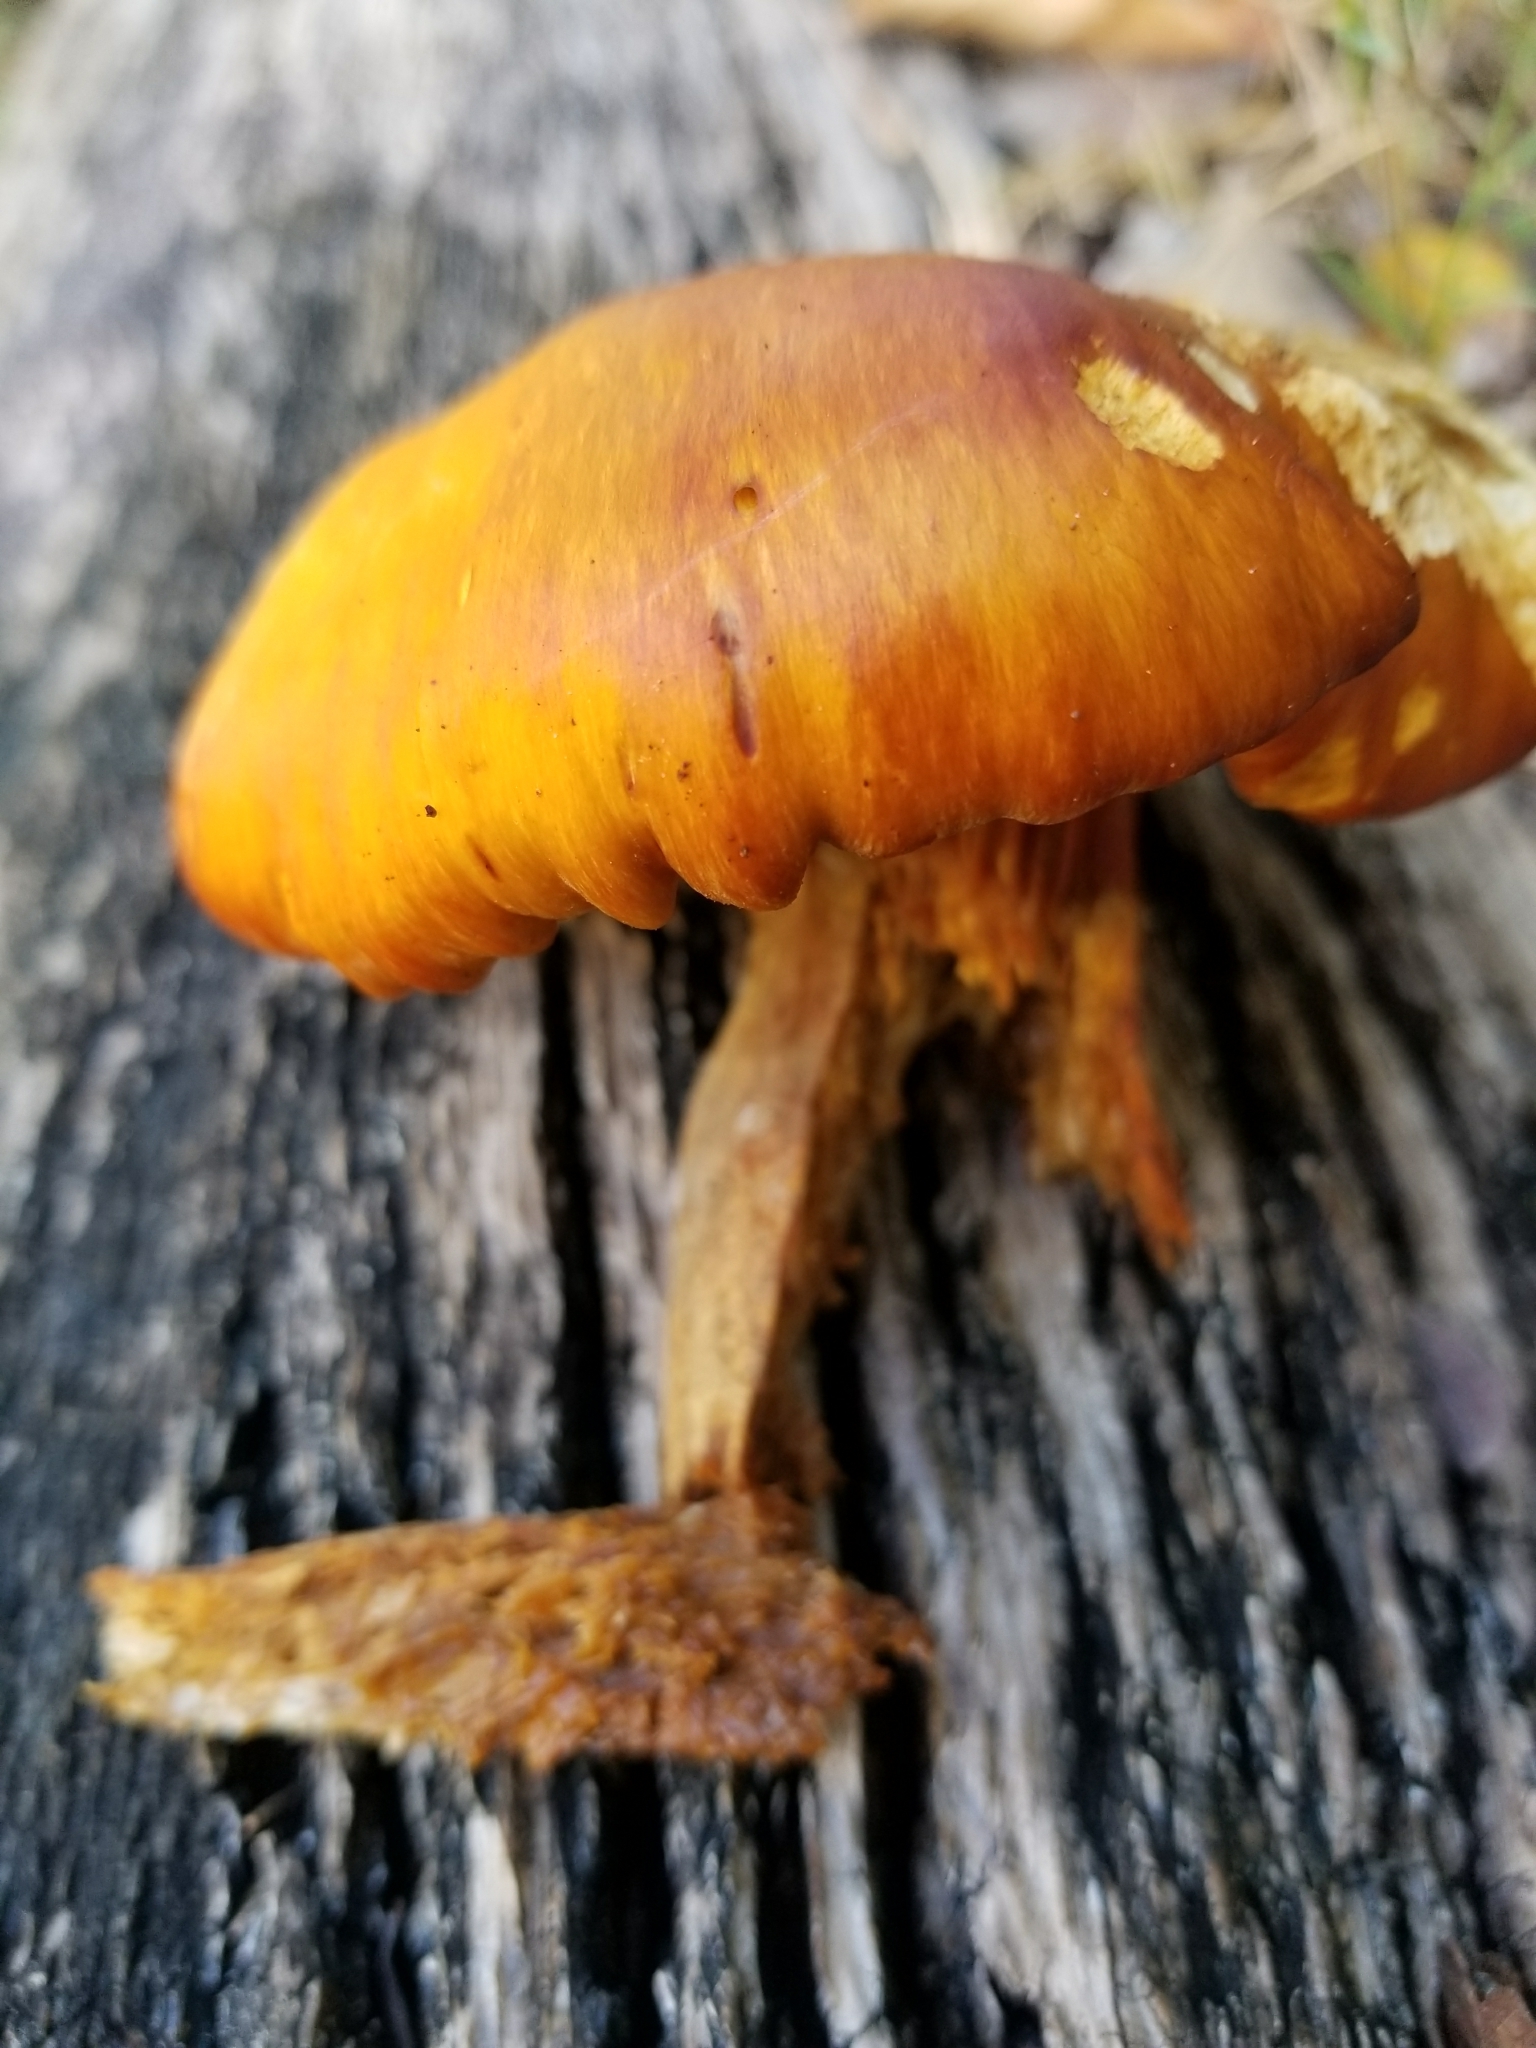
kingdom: Fungi
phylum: Basidiomycota
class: Agaricomycetes
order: Agaricales
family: Omphalotaceae
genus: Omphalotus
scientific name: Omphalotus subilludens
